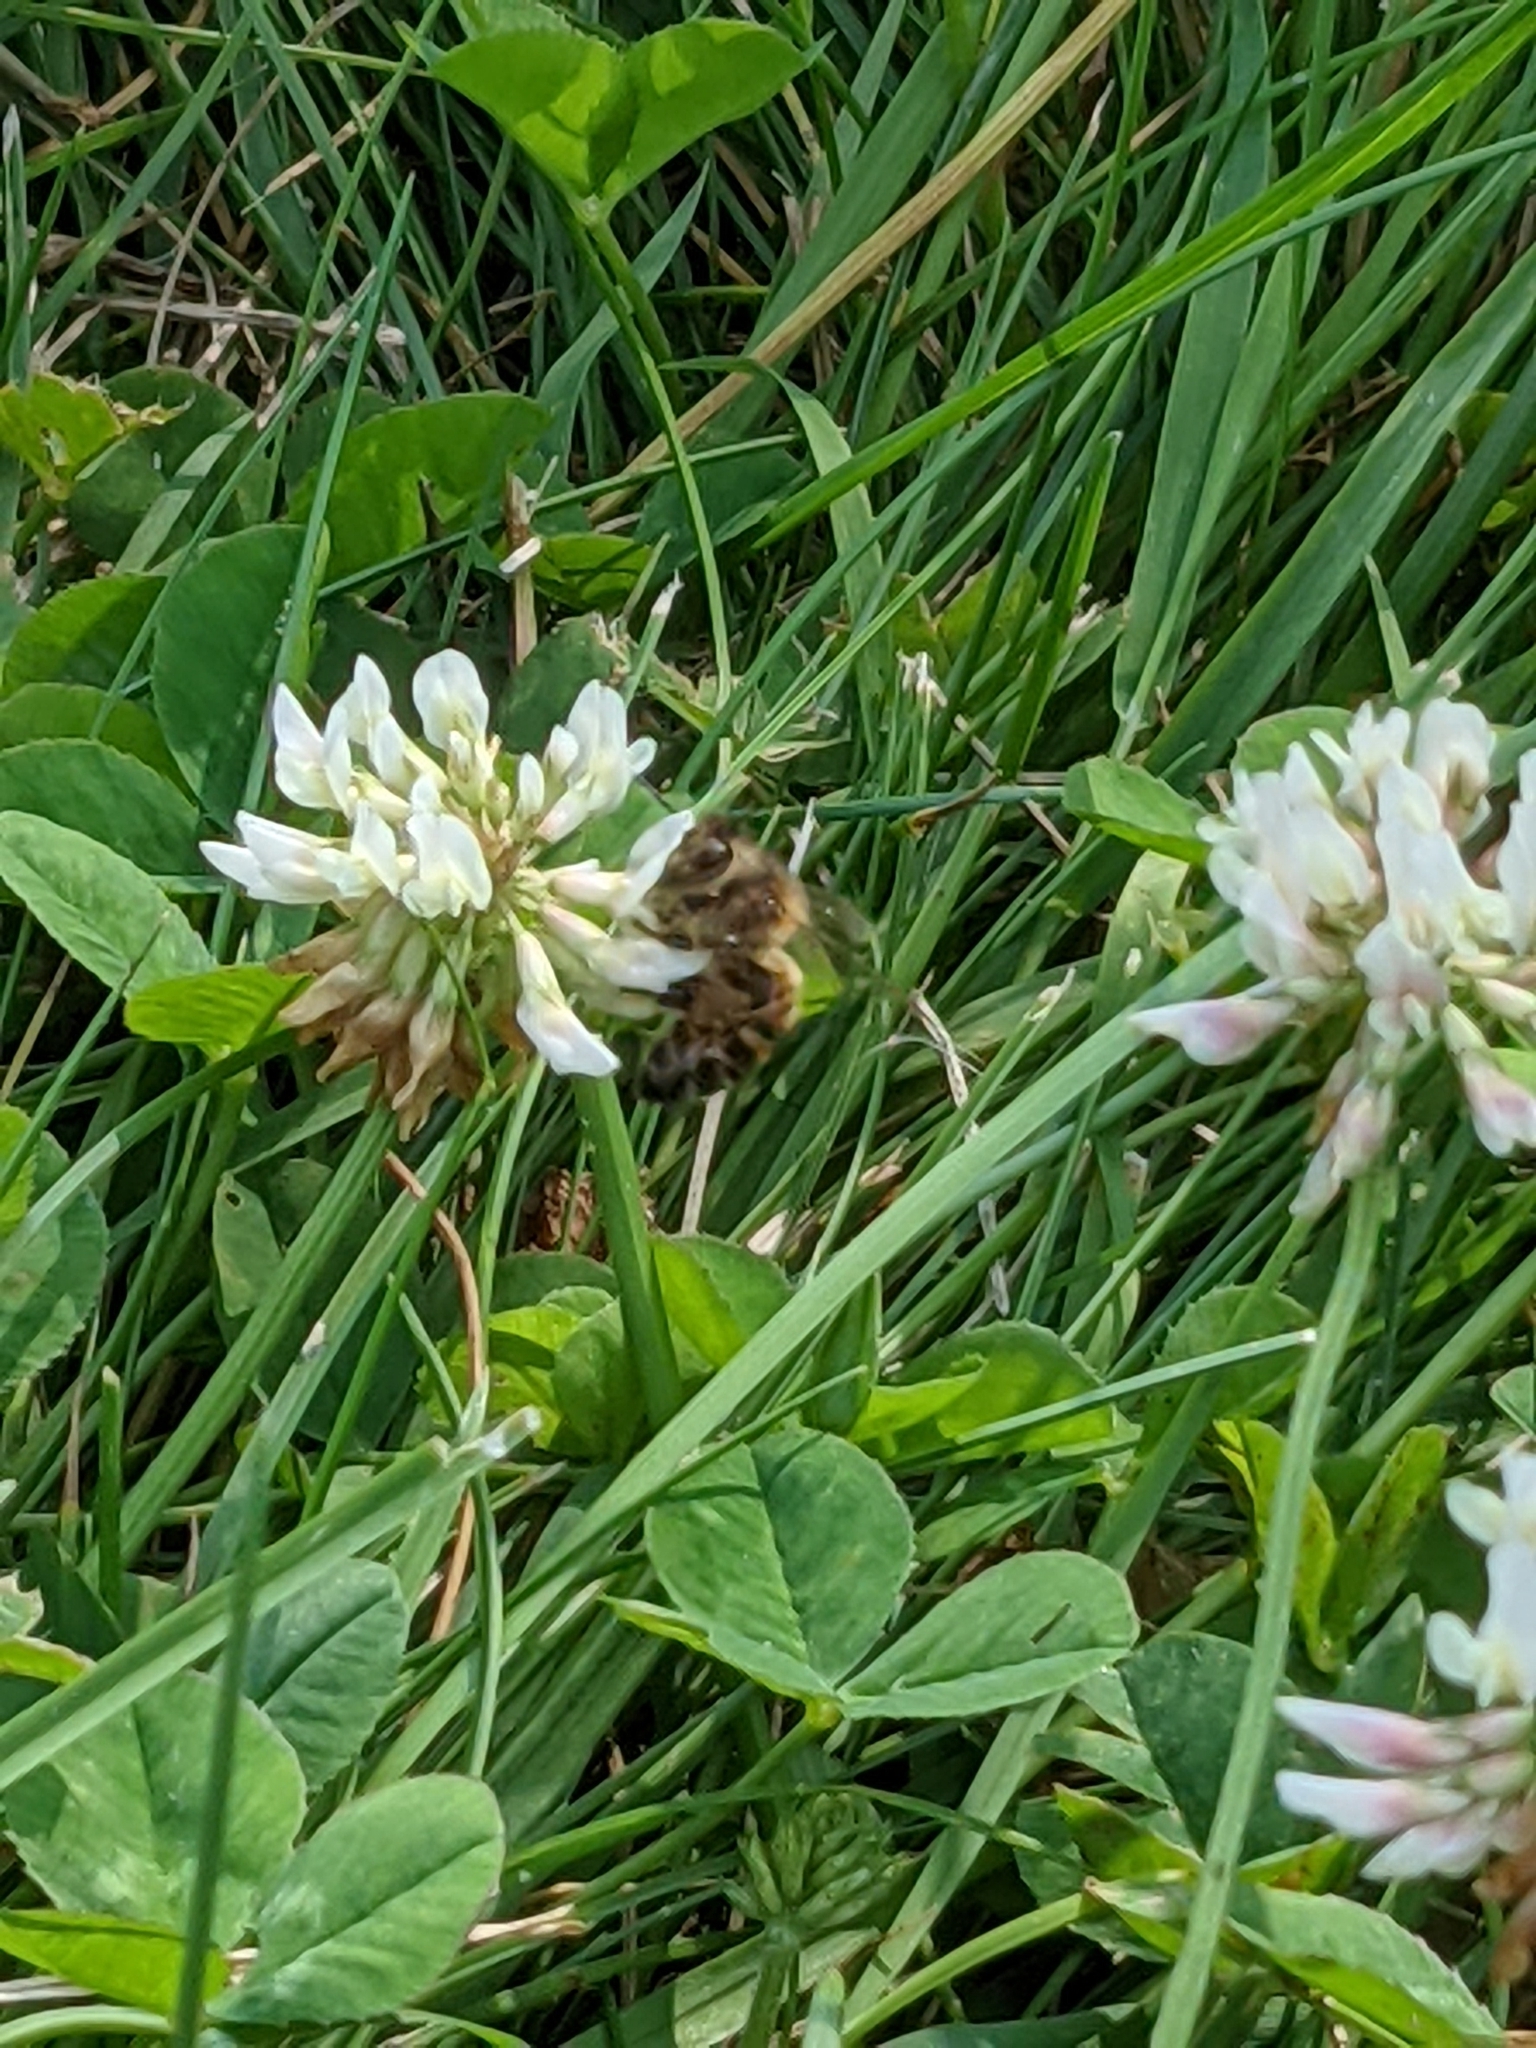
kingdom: Animalia
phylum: Arthropoda
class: Insecta
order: Hymenoptera
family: Apidae
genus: Apis
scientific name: Apis mellifera
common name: Honey bee
